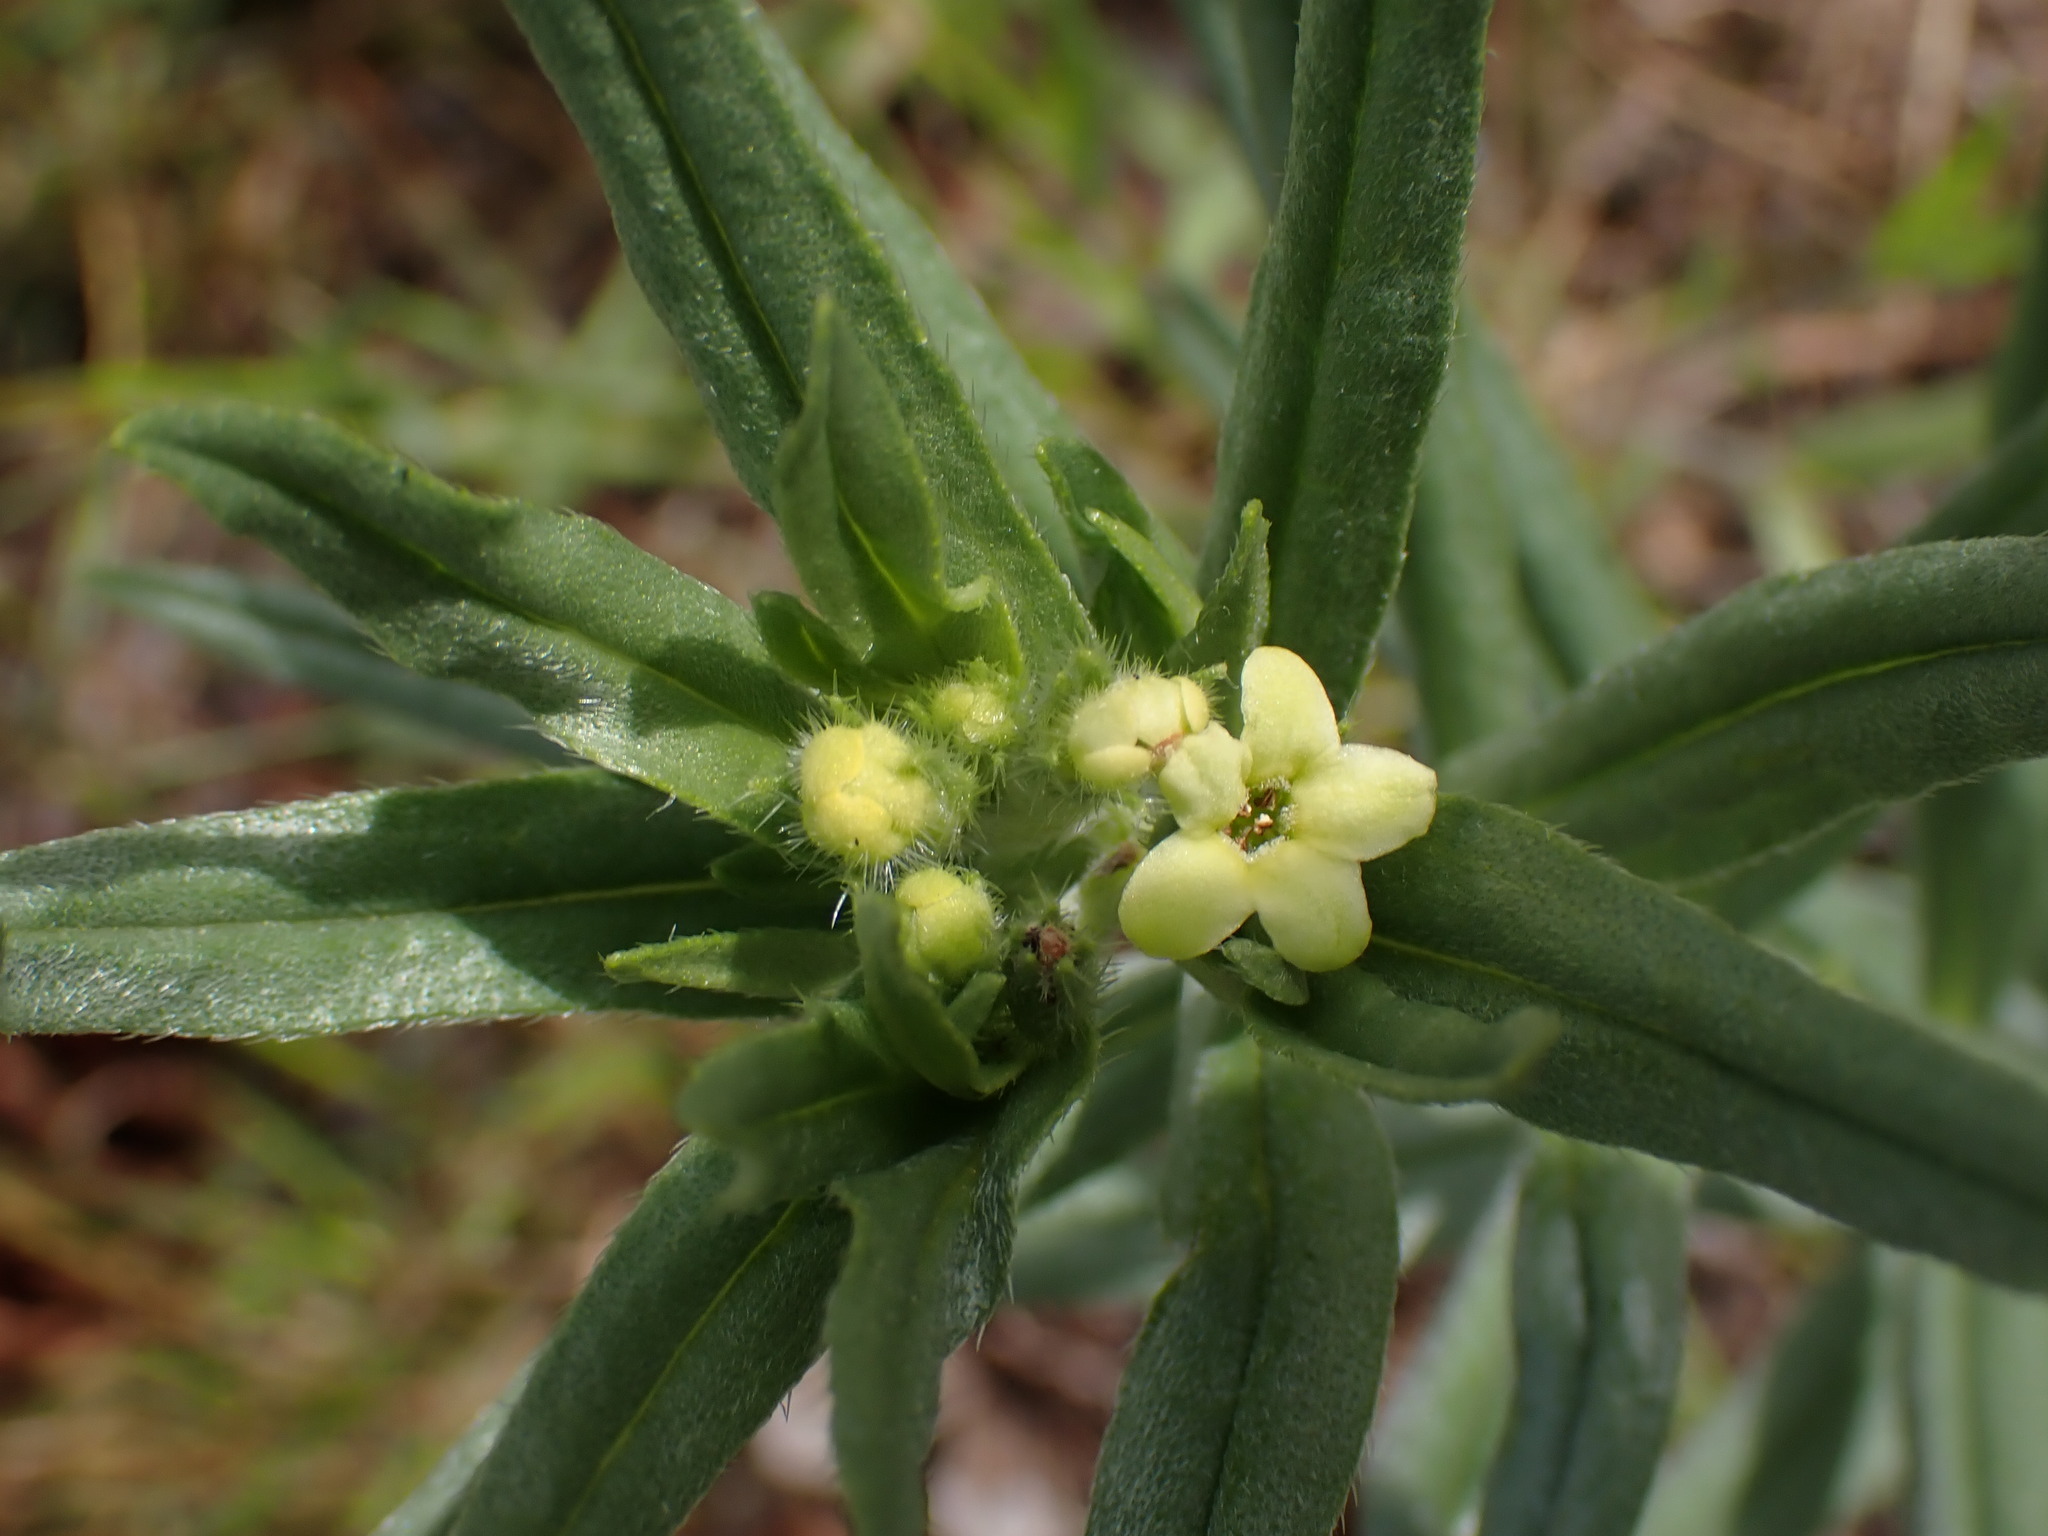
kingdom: Plantae
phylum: Tracheophyta
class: Magnoliopsida
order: Boraginales
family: Boraginaceae
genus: Lithospermum
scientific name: Lithospermum ruderale
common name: Western gromwell
